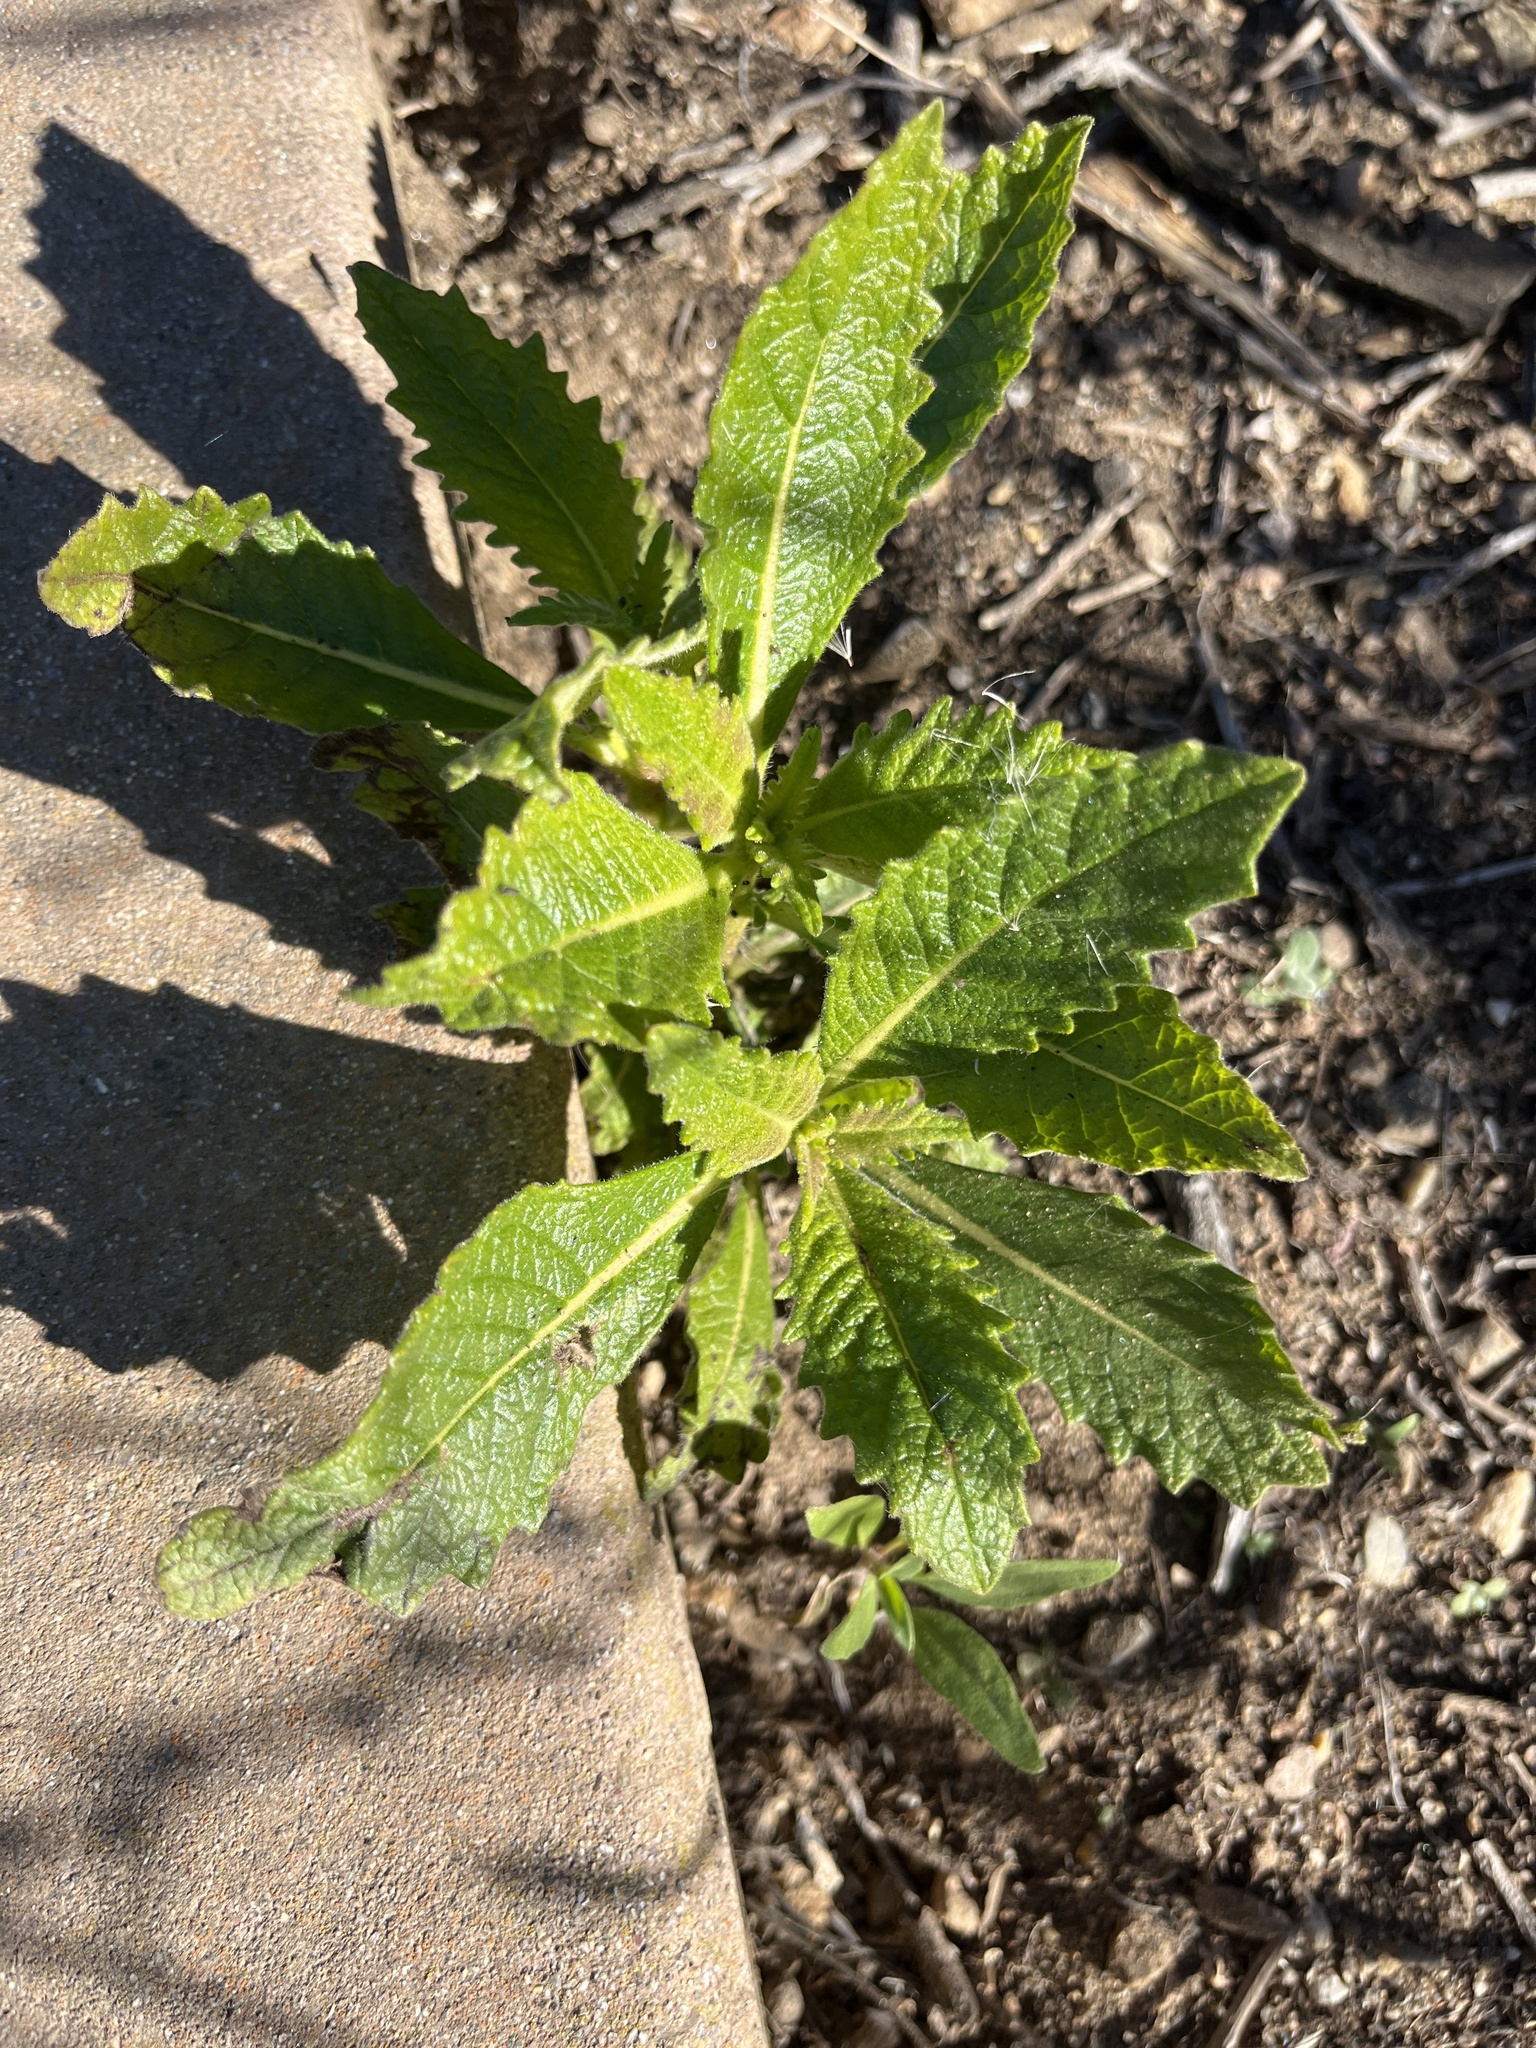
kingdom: Plantae
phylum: Tracheophyta
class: Magnoliopsida
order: Boraginales
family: Namaceae
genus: Eriodictyon
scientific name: Eriodictyon crassifolium
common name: Thick-leaf yerba-santa
